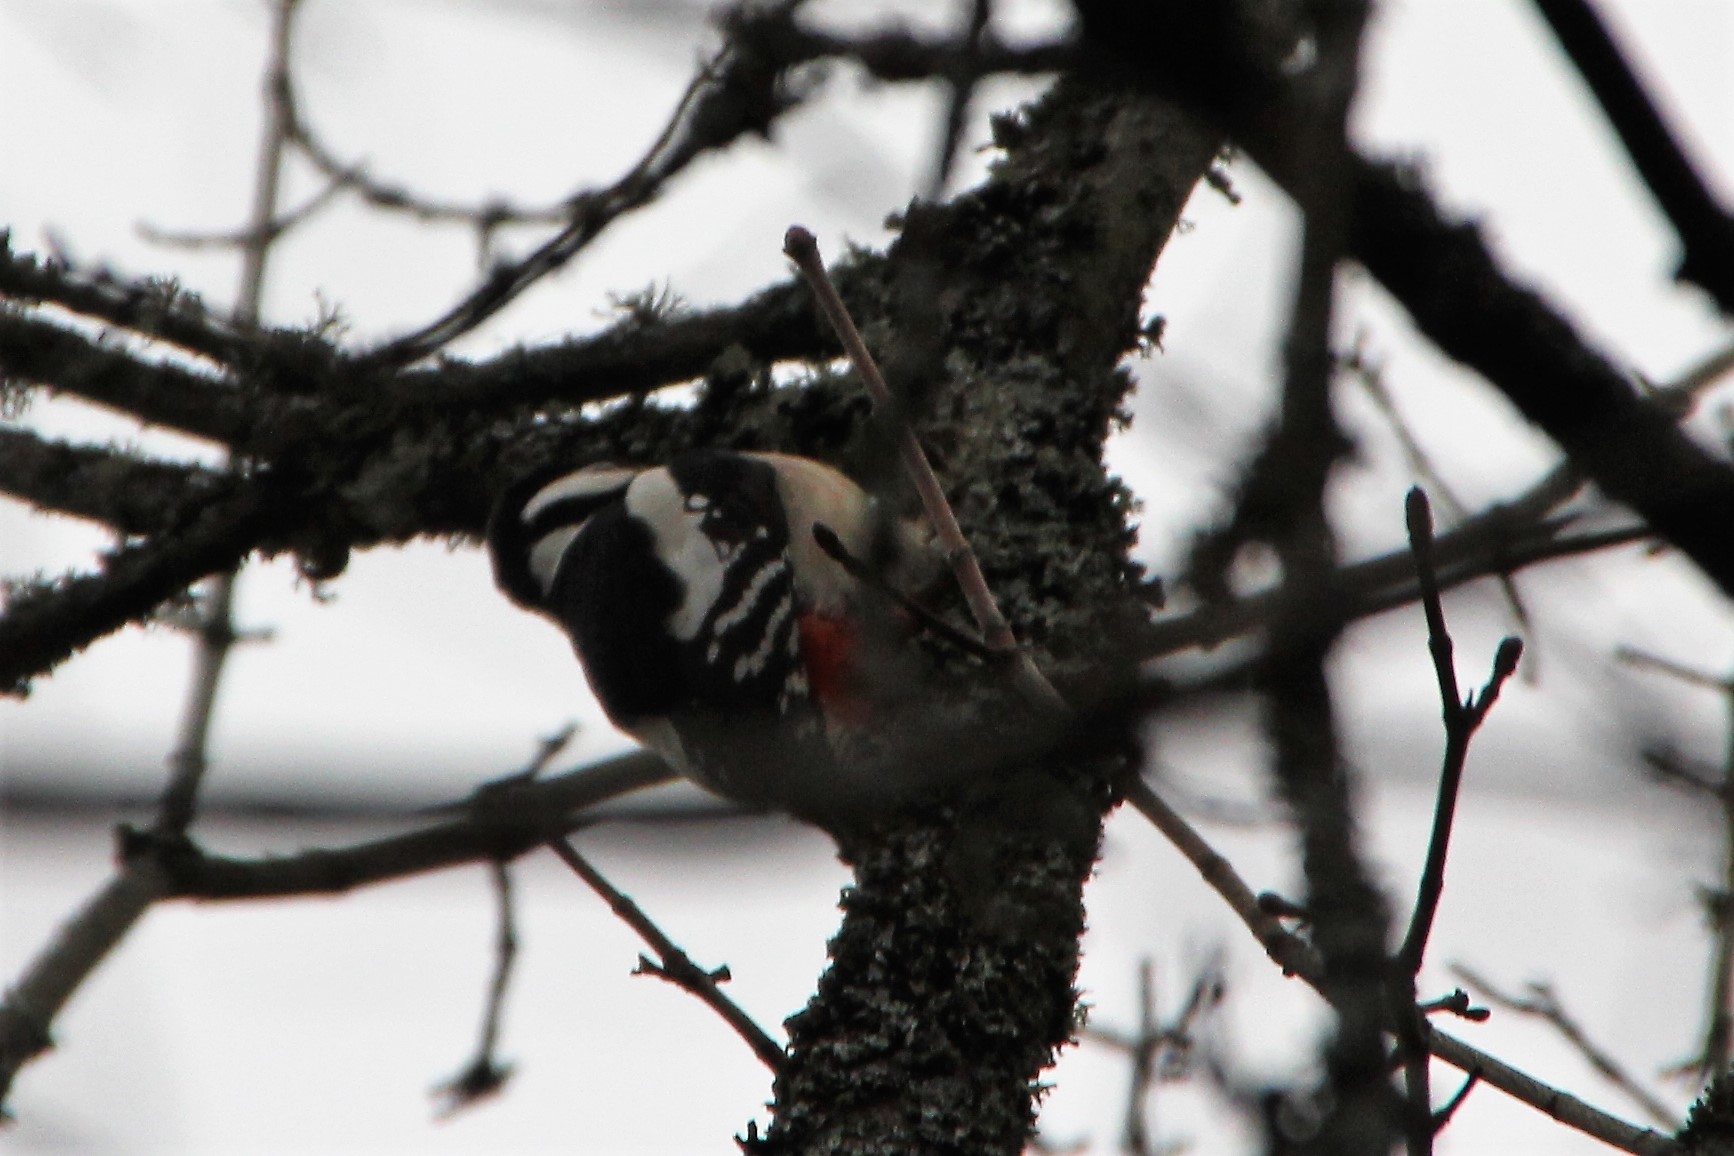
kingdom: Animalia
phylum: Chordata
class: Aves
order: Piciformes
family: Picidae
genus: Dendrocopos
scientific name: Dendrocopos major
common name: Great spotted woodpecker
